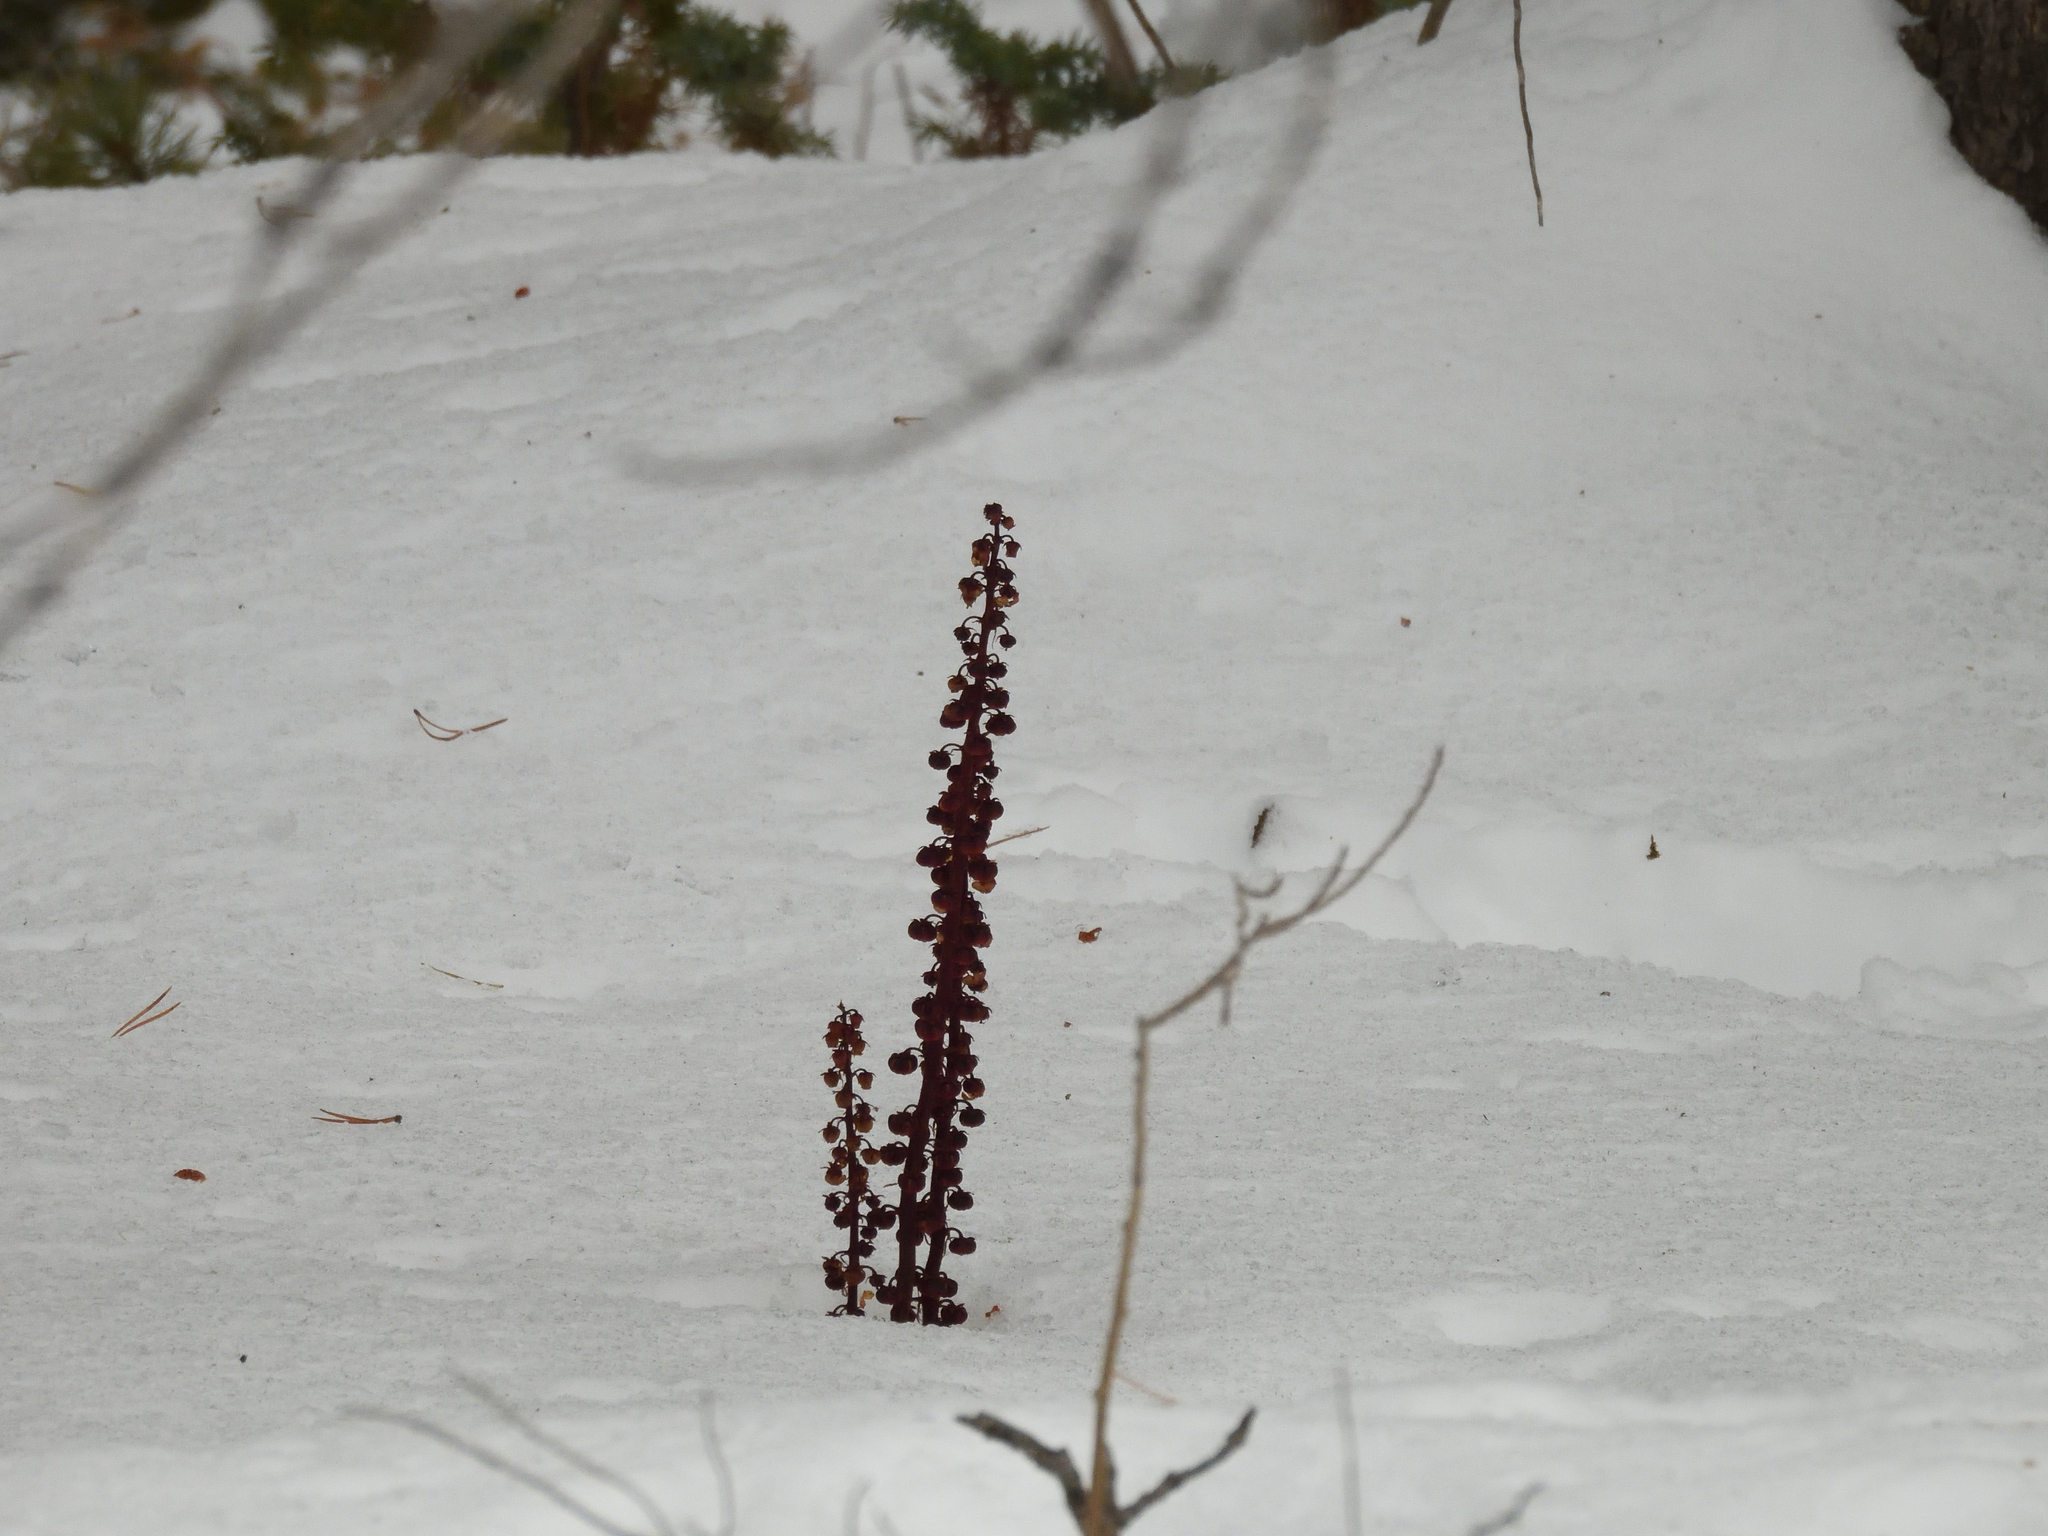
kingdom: Plantae
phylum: Tracheophyta
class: Magnoliopsida
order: Ericales
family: Ericaceae
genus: Pterospora
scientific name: Pterospora andromedea
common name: Giant bird's-nest
